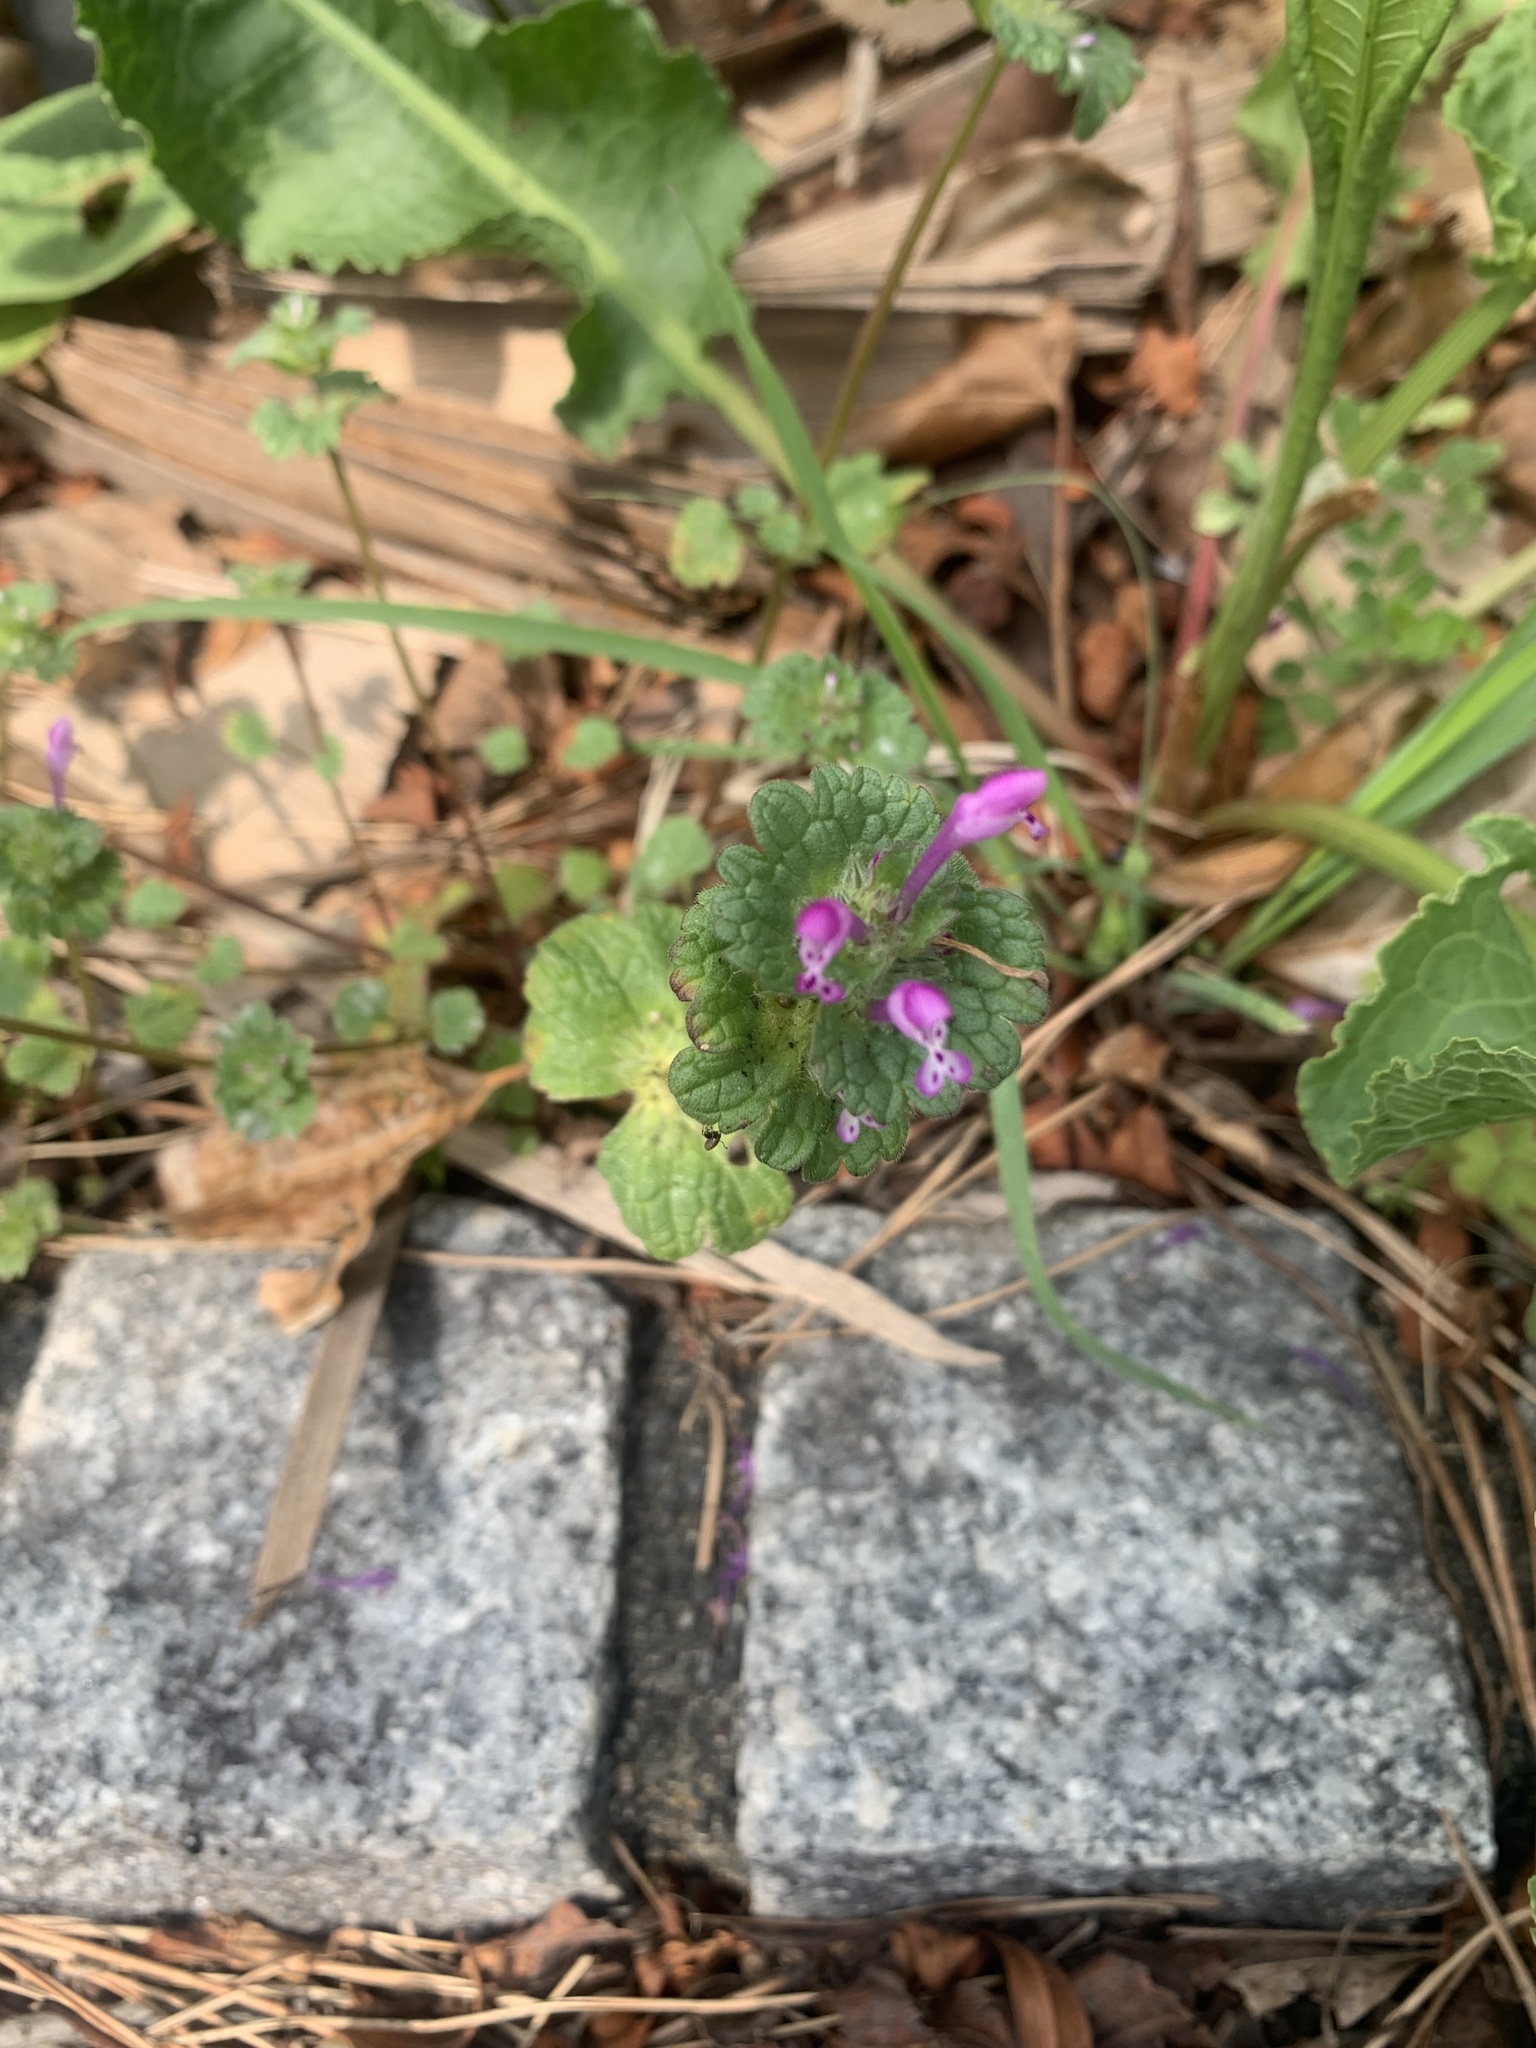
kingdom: Plantae
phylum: Tracheophyta
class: Magnoliopsida
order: Lamiales
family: Lamiaceae
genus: Lamium
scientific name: Lamium amplexicaule
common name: Henbit dead-nettle
